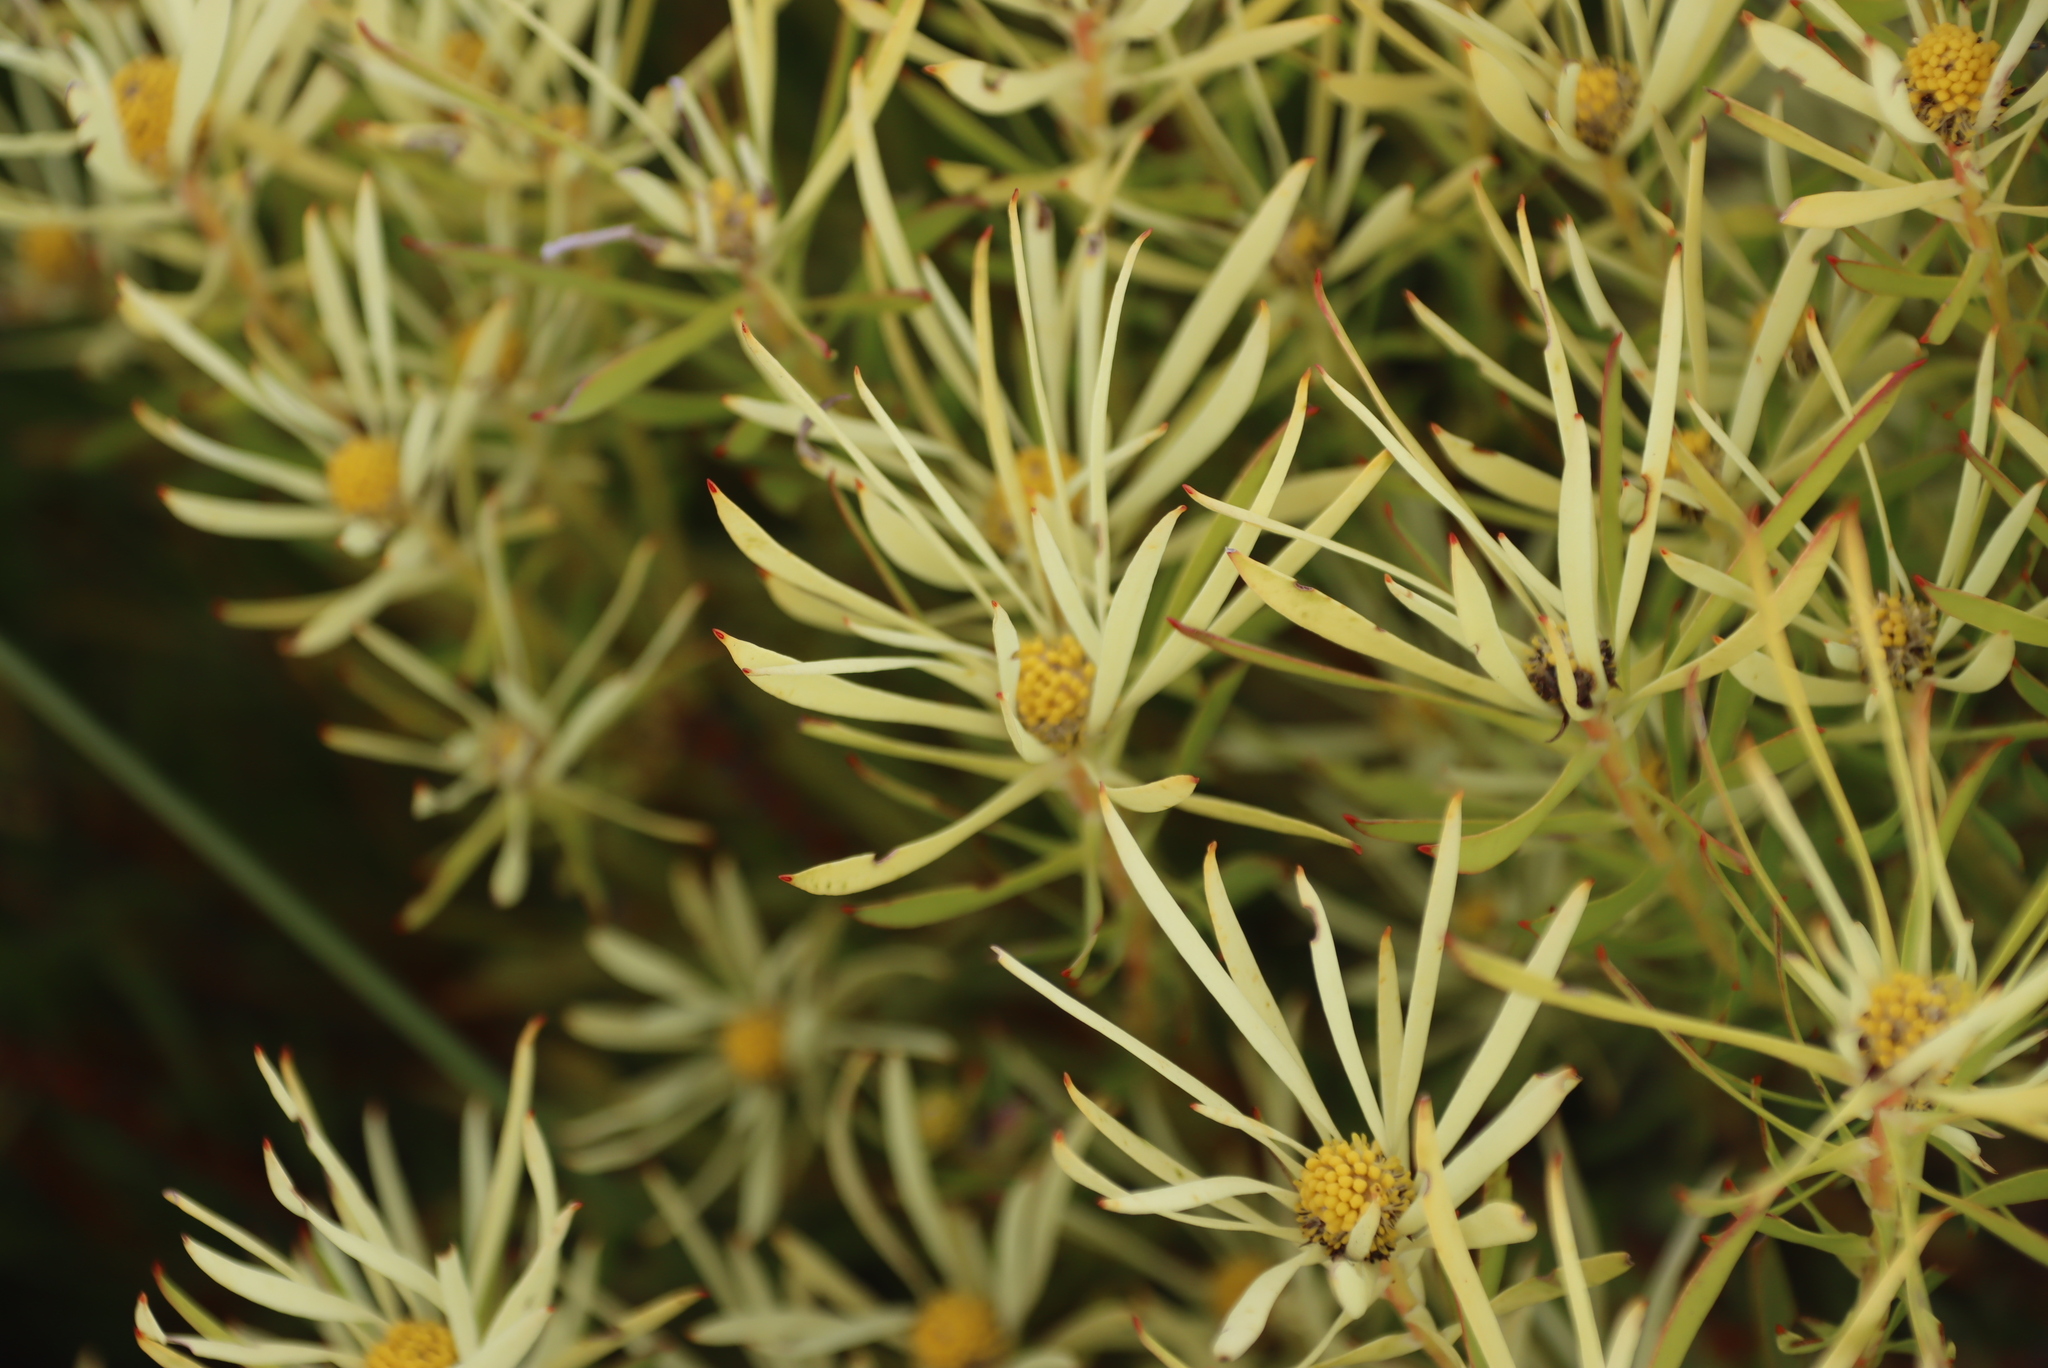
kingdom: Plantae
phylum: Tracheophyta
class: Magnoliopsida
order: Proteales
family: Proteaceae
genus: Leucadendron
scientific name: Leucadendron salignum
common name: Common sunshine conebush
